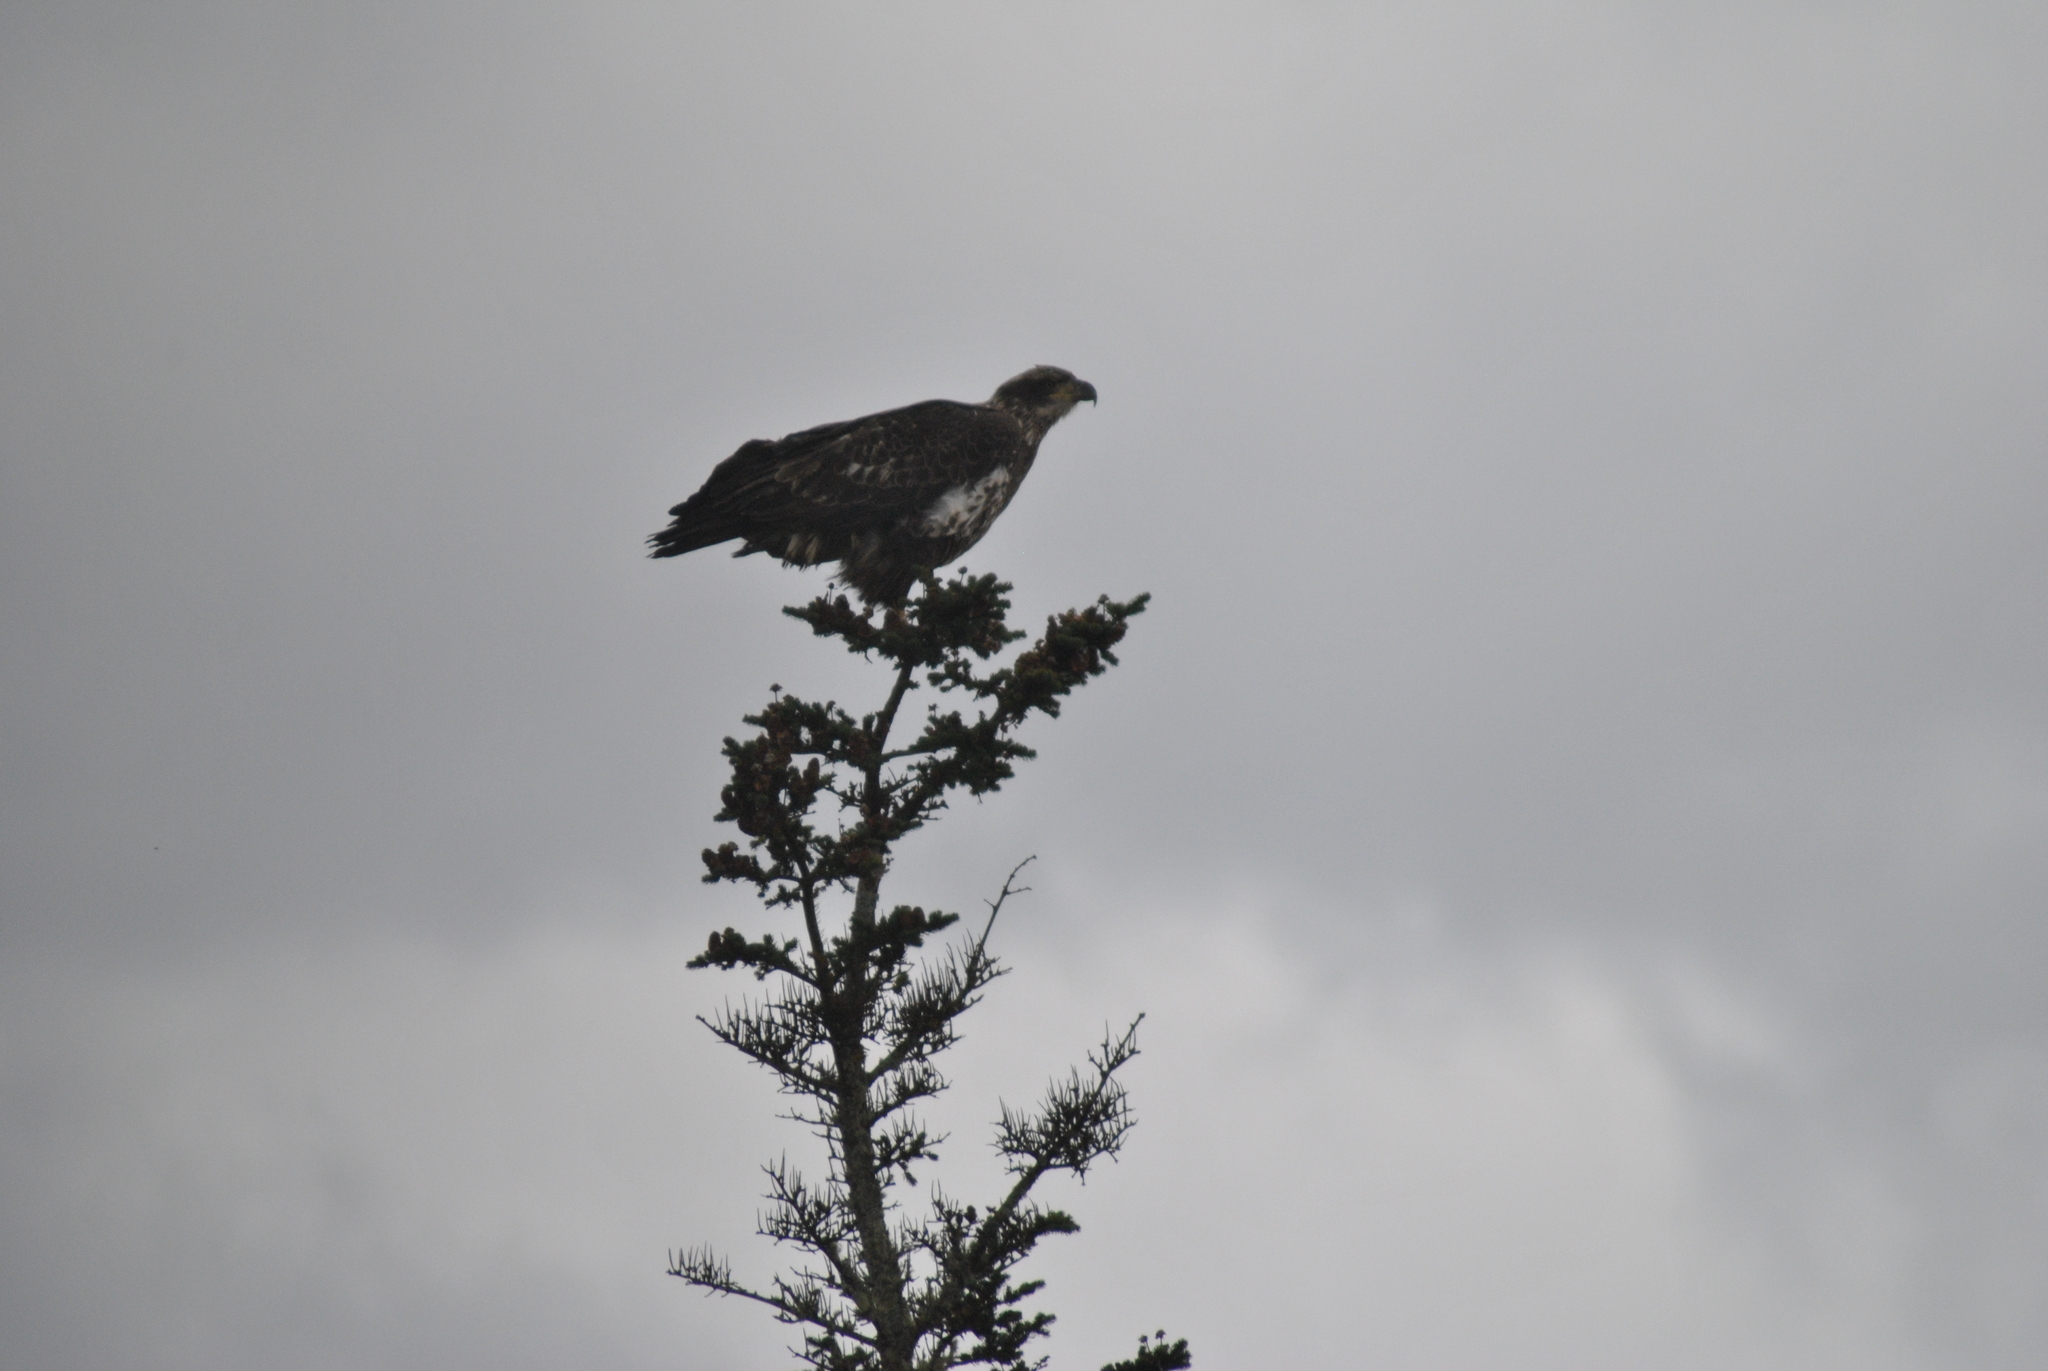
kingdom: Animalia
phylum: Chordata
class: Aves
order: Accipitriformes
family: Accipitridae
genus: Haliaeetus
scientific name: Haliaeetus leucocephalus
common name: Bald eagle
